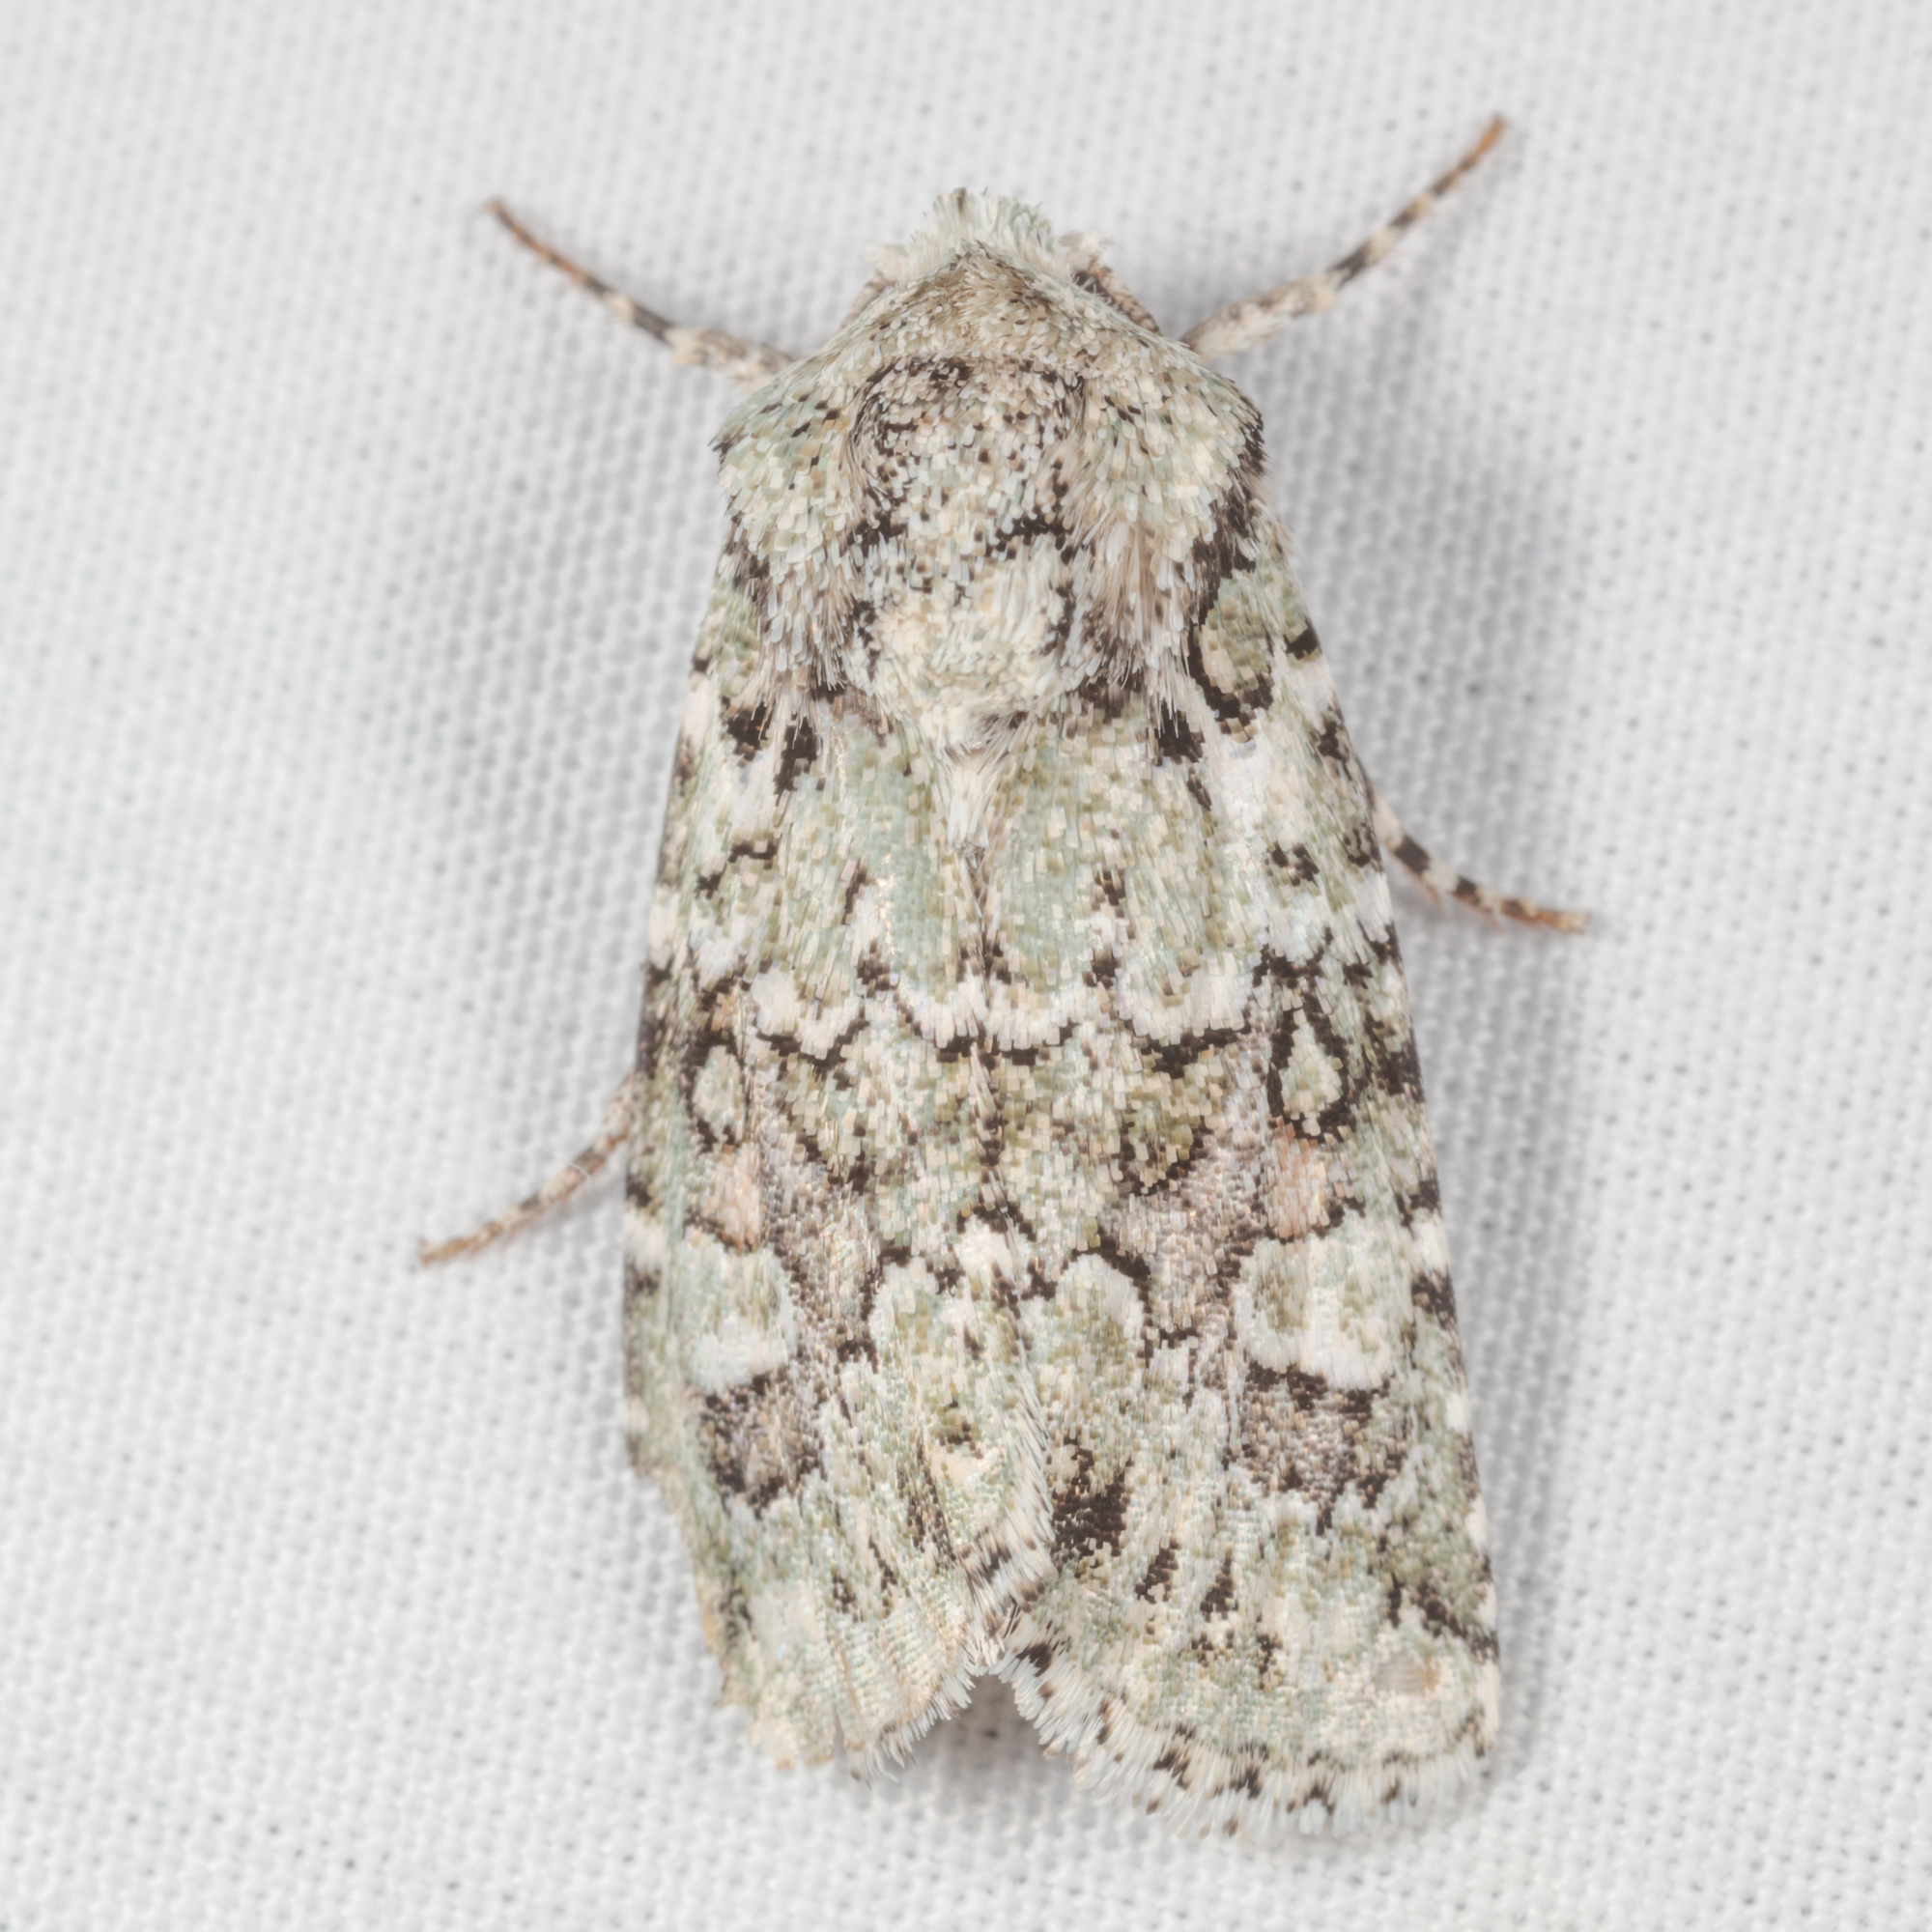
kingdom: Animalia
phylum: Arthropoda
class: Insecta
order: Lepidoptera
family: Noctuidae
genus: Lacinipolia
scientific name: Lacinipolia buscki
